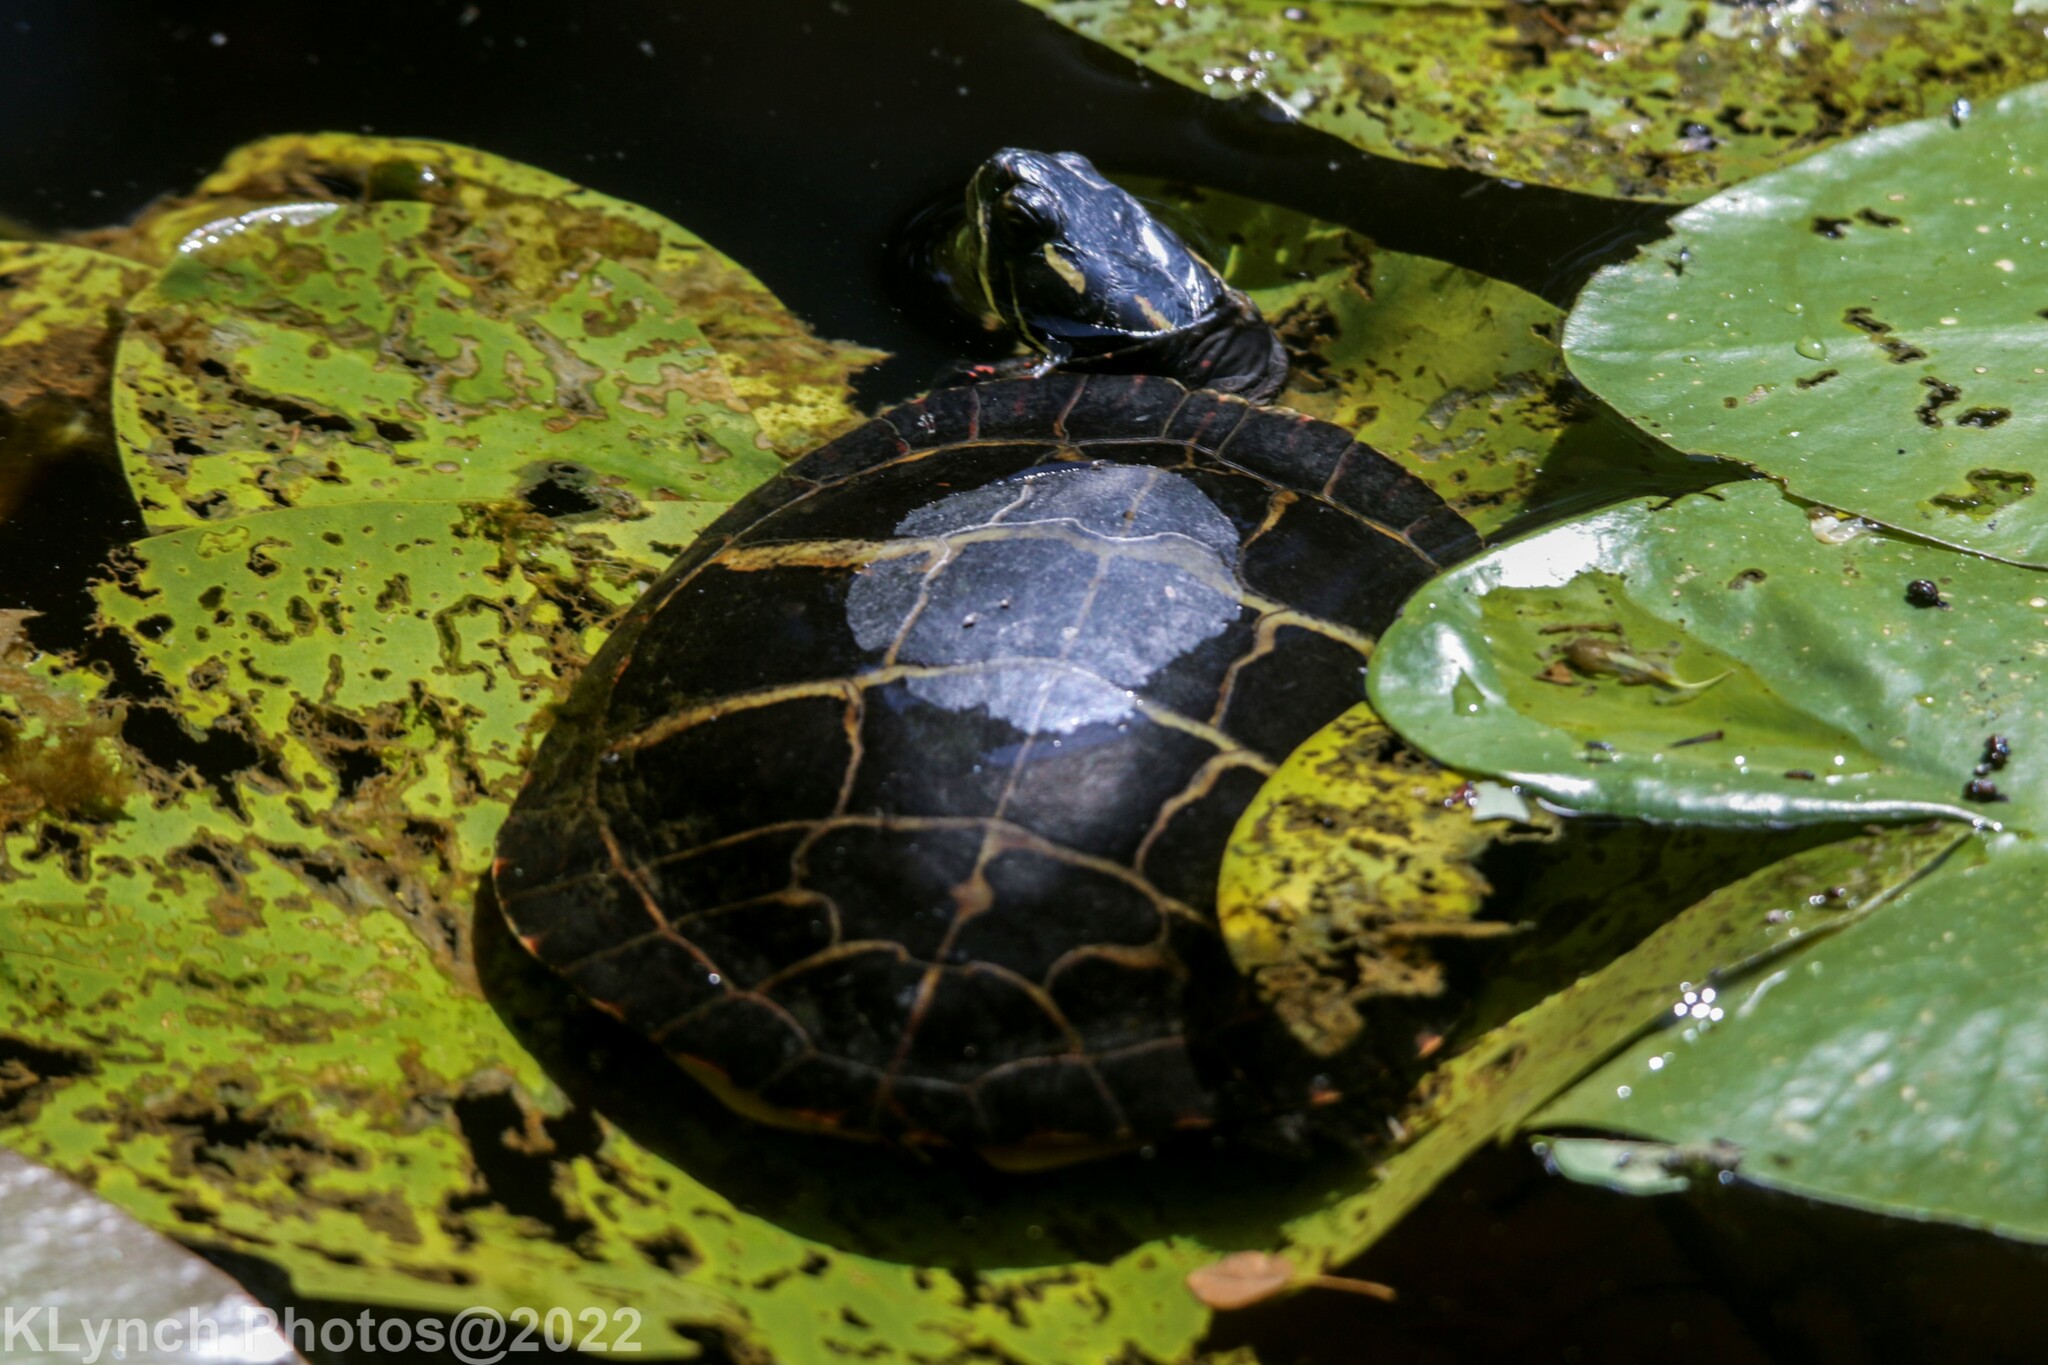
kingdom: Animalia
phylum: Chordata
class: Testudines
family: Emydidae
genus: Chrysemys
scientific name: Chrysemys picta
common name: Painted turtle
